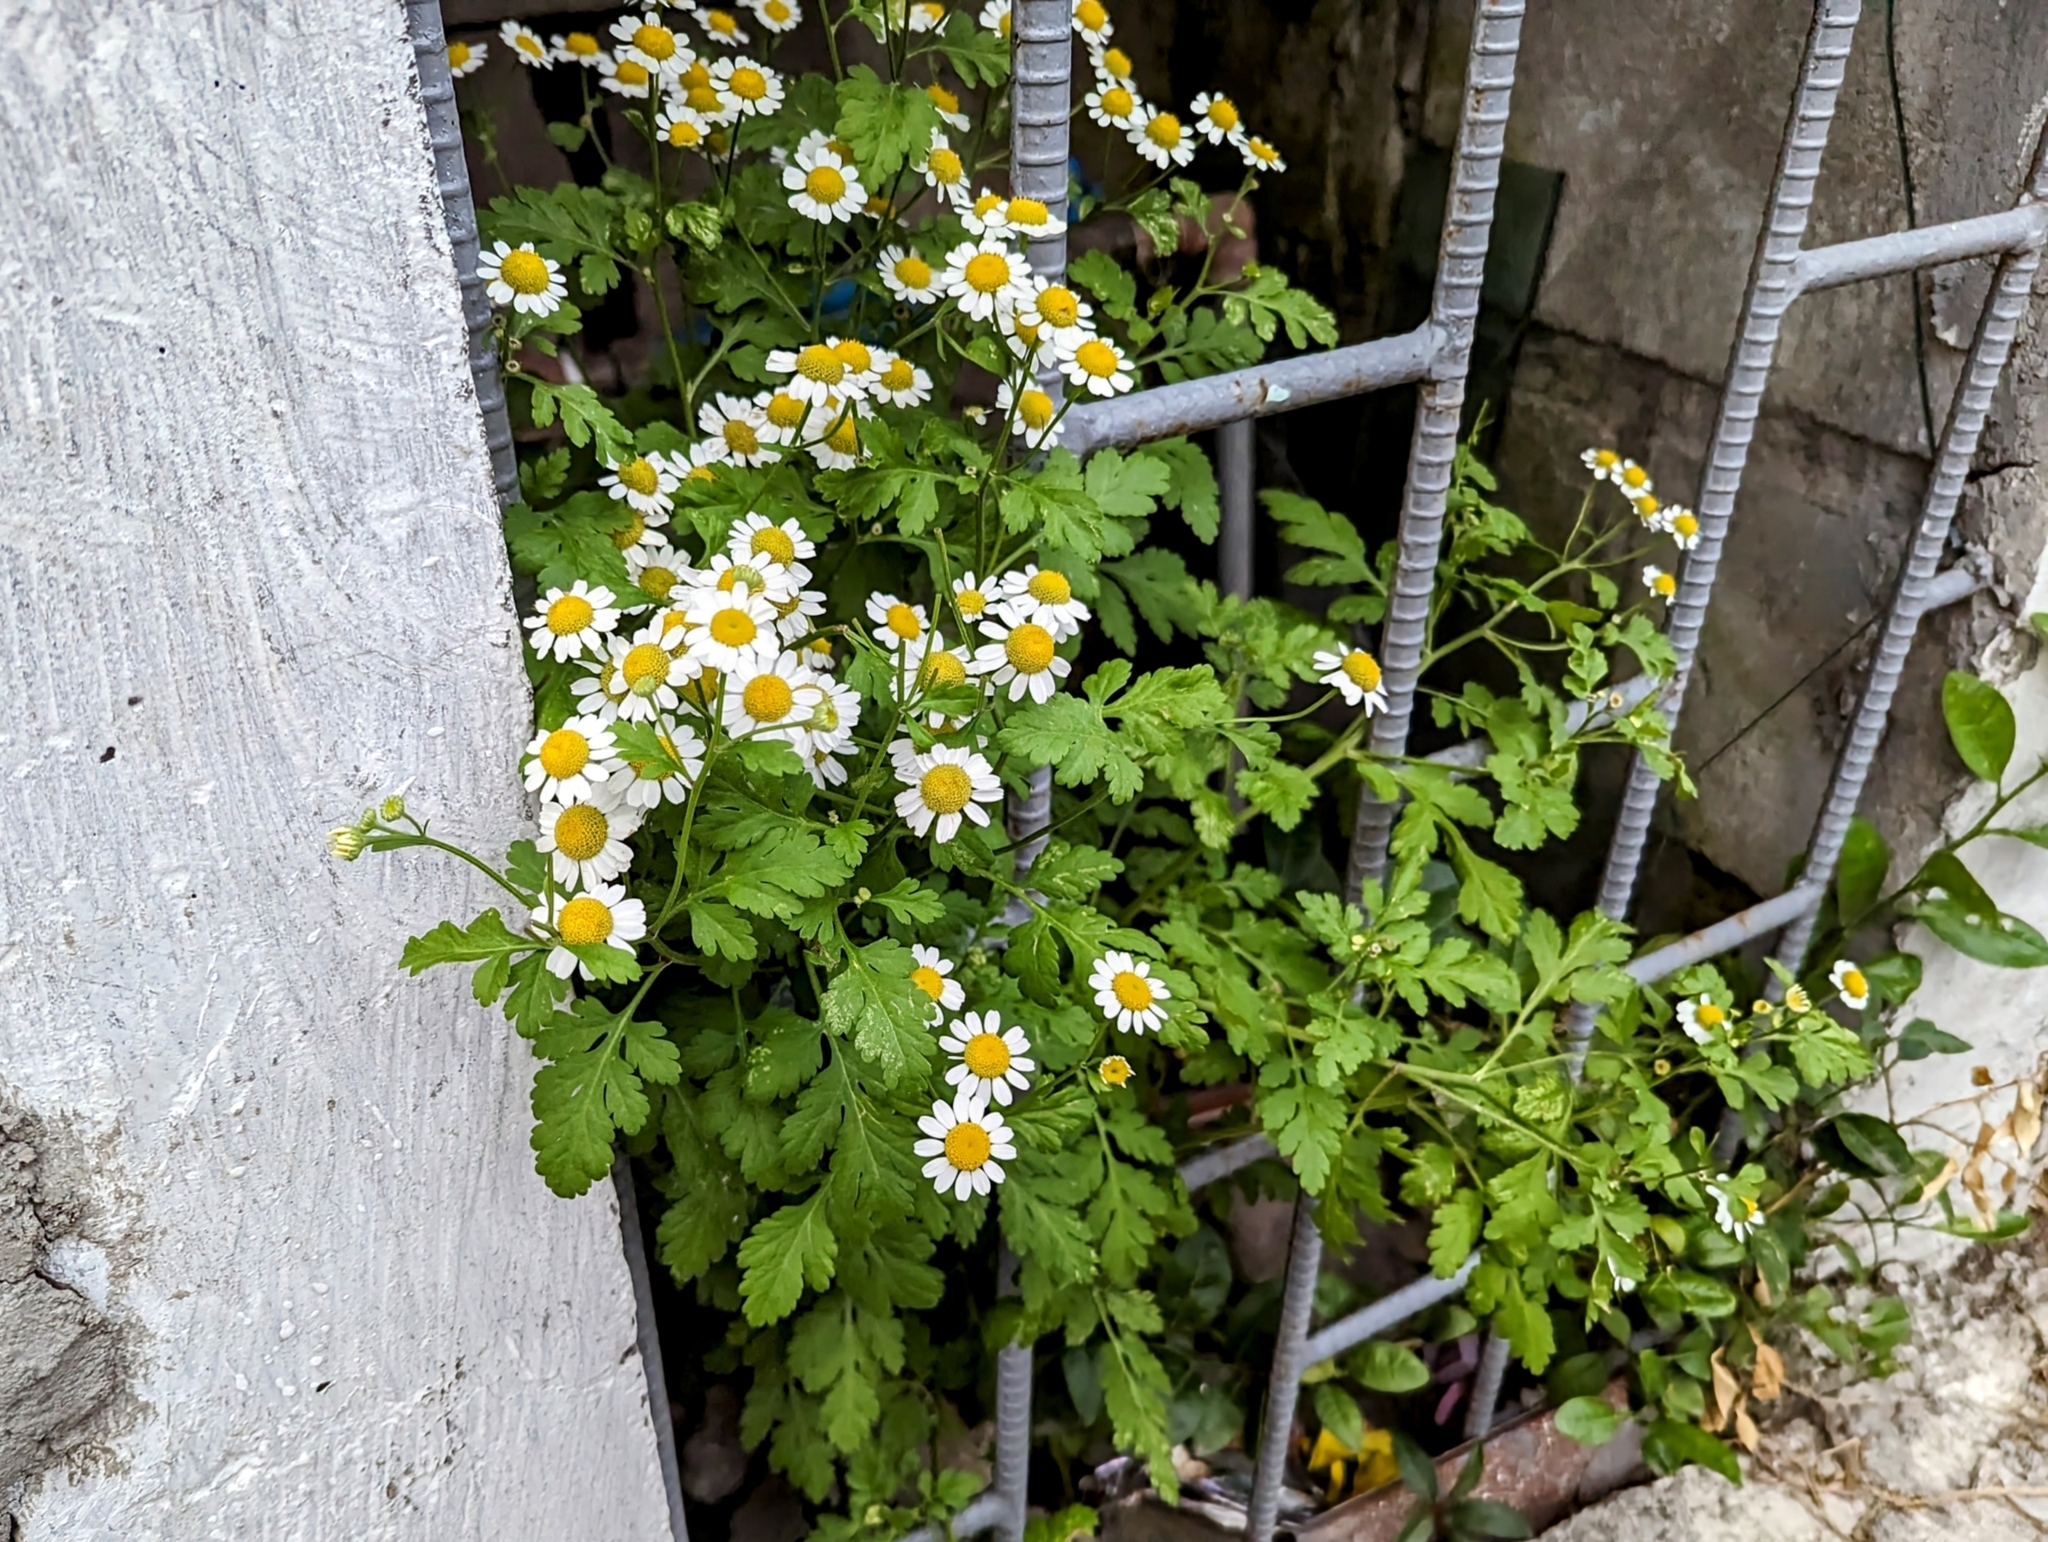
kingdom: Plantae
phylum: Tracheophyta
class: Magnoliopsida
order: Asterales
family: Asteraceae
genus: Tanacetum
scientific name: Tanacetum parthenium
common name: Feverfew
